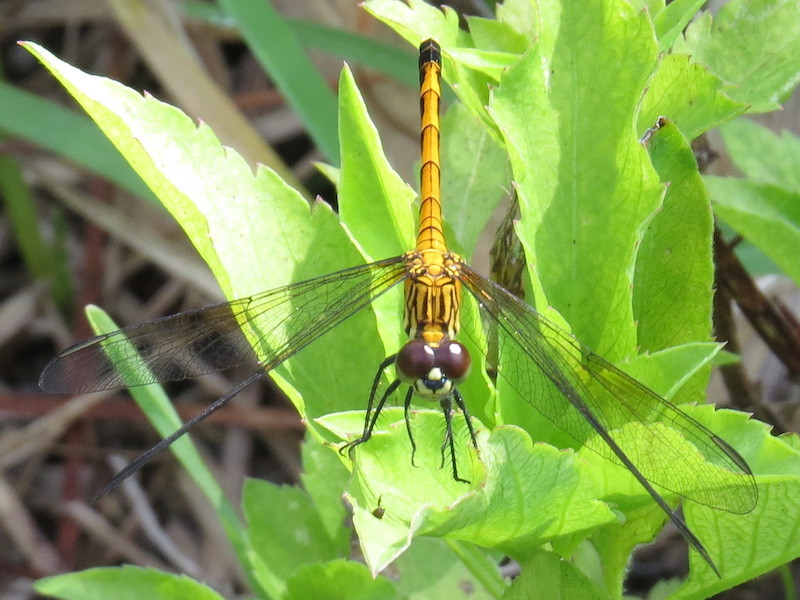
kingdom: Animalia
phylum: Arthropoda
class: Insecta
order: Odonata
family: Libellulidae
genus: Erythrodiplax
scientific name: Erythrodiplax berenice
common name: Seaside dragonlet
